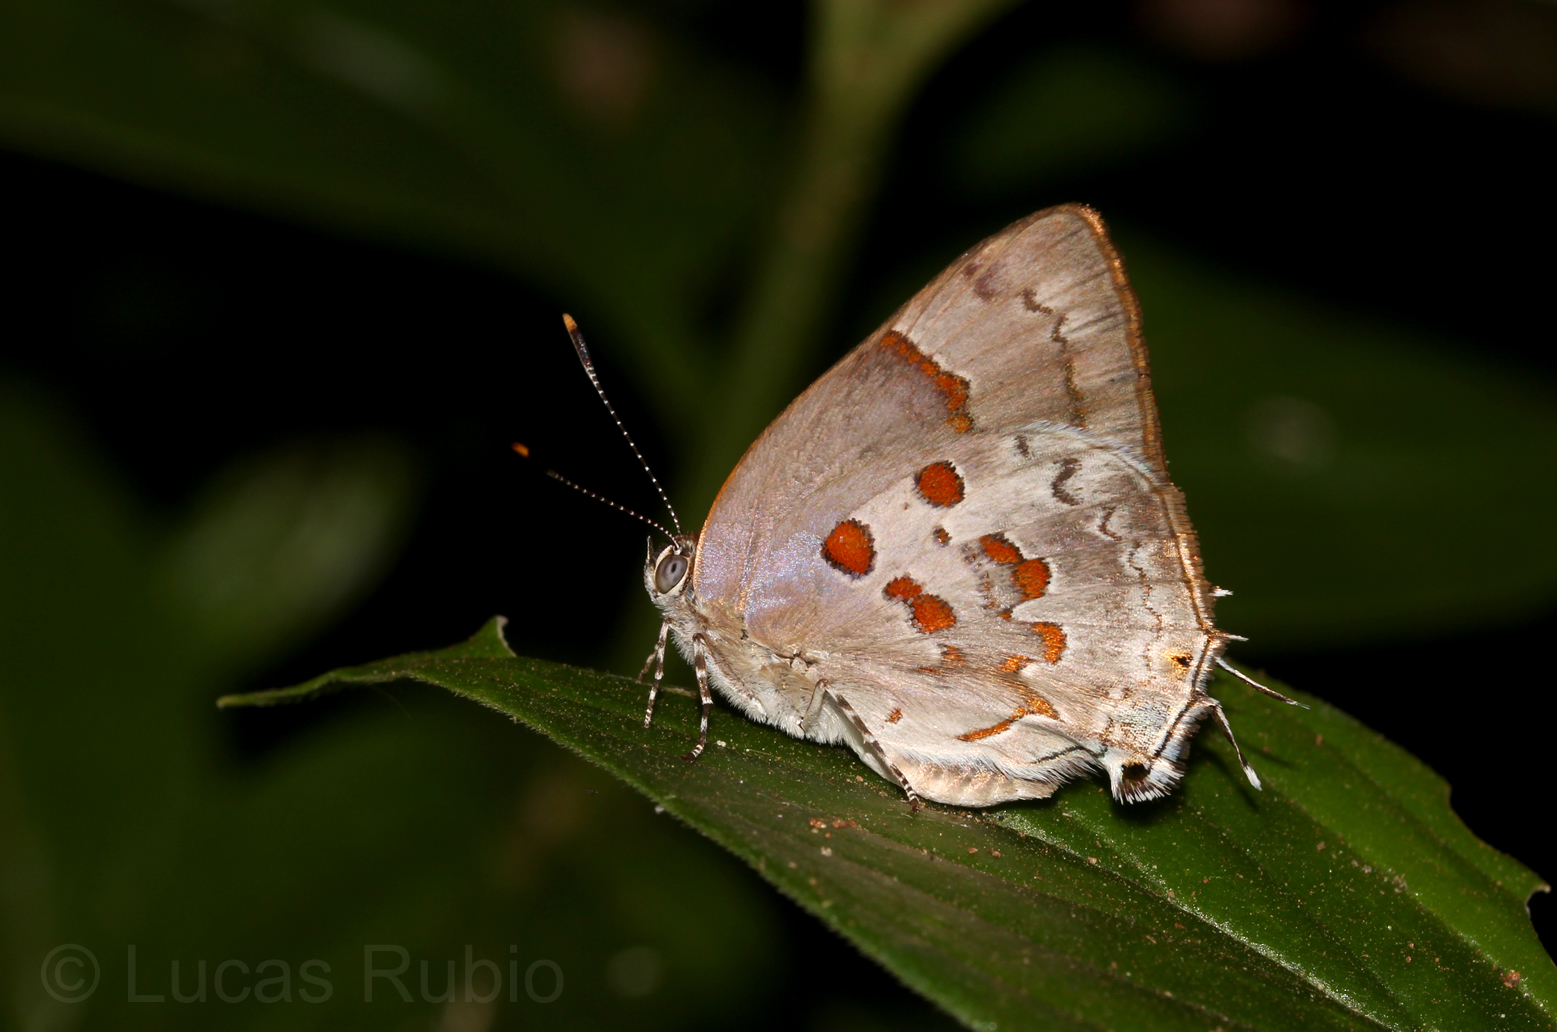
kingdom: Animalia
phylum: Arthropoda
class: Insecta
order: Lepidoptera
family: Lycaenidae
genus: Tmolus
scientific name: Tmolus echion
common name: Red-spotted hairstreak
